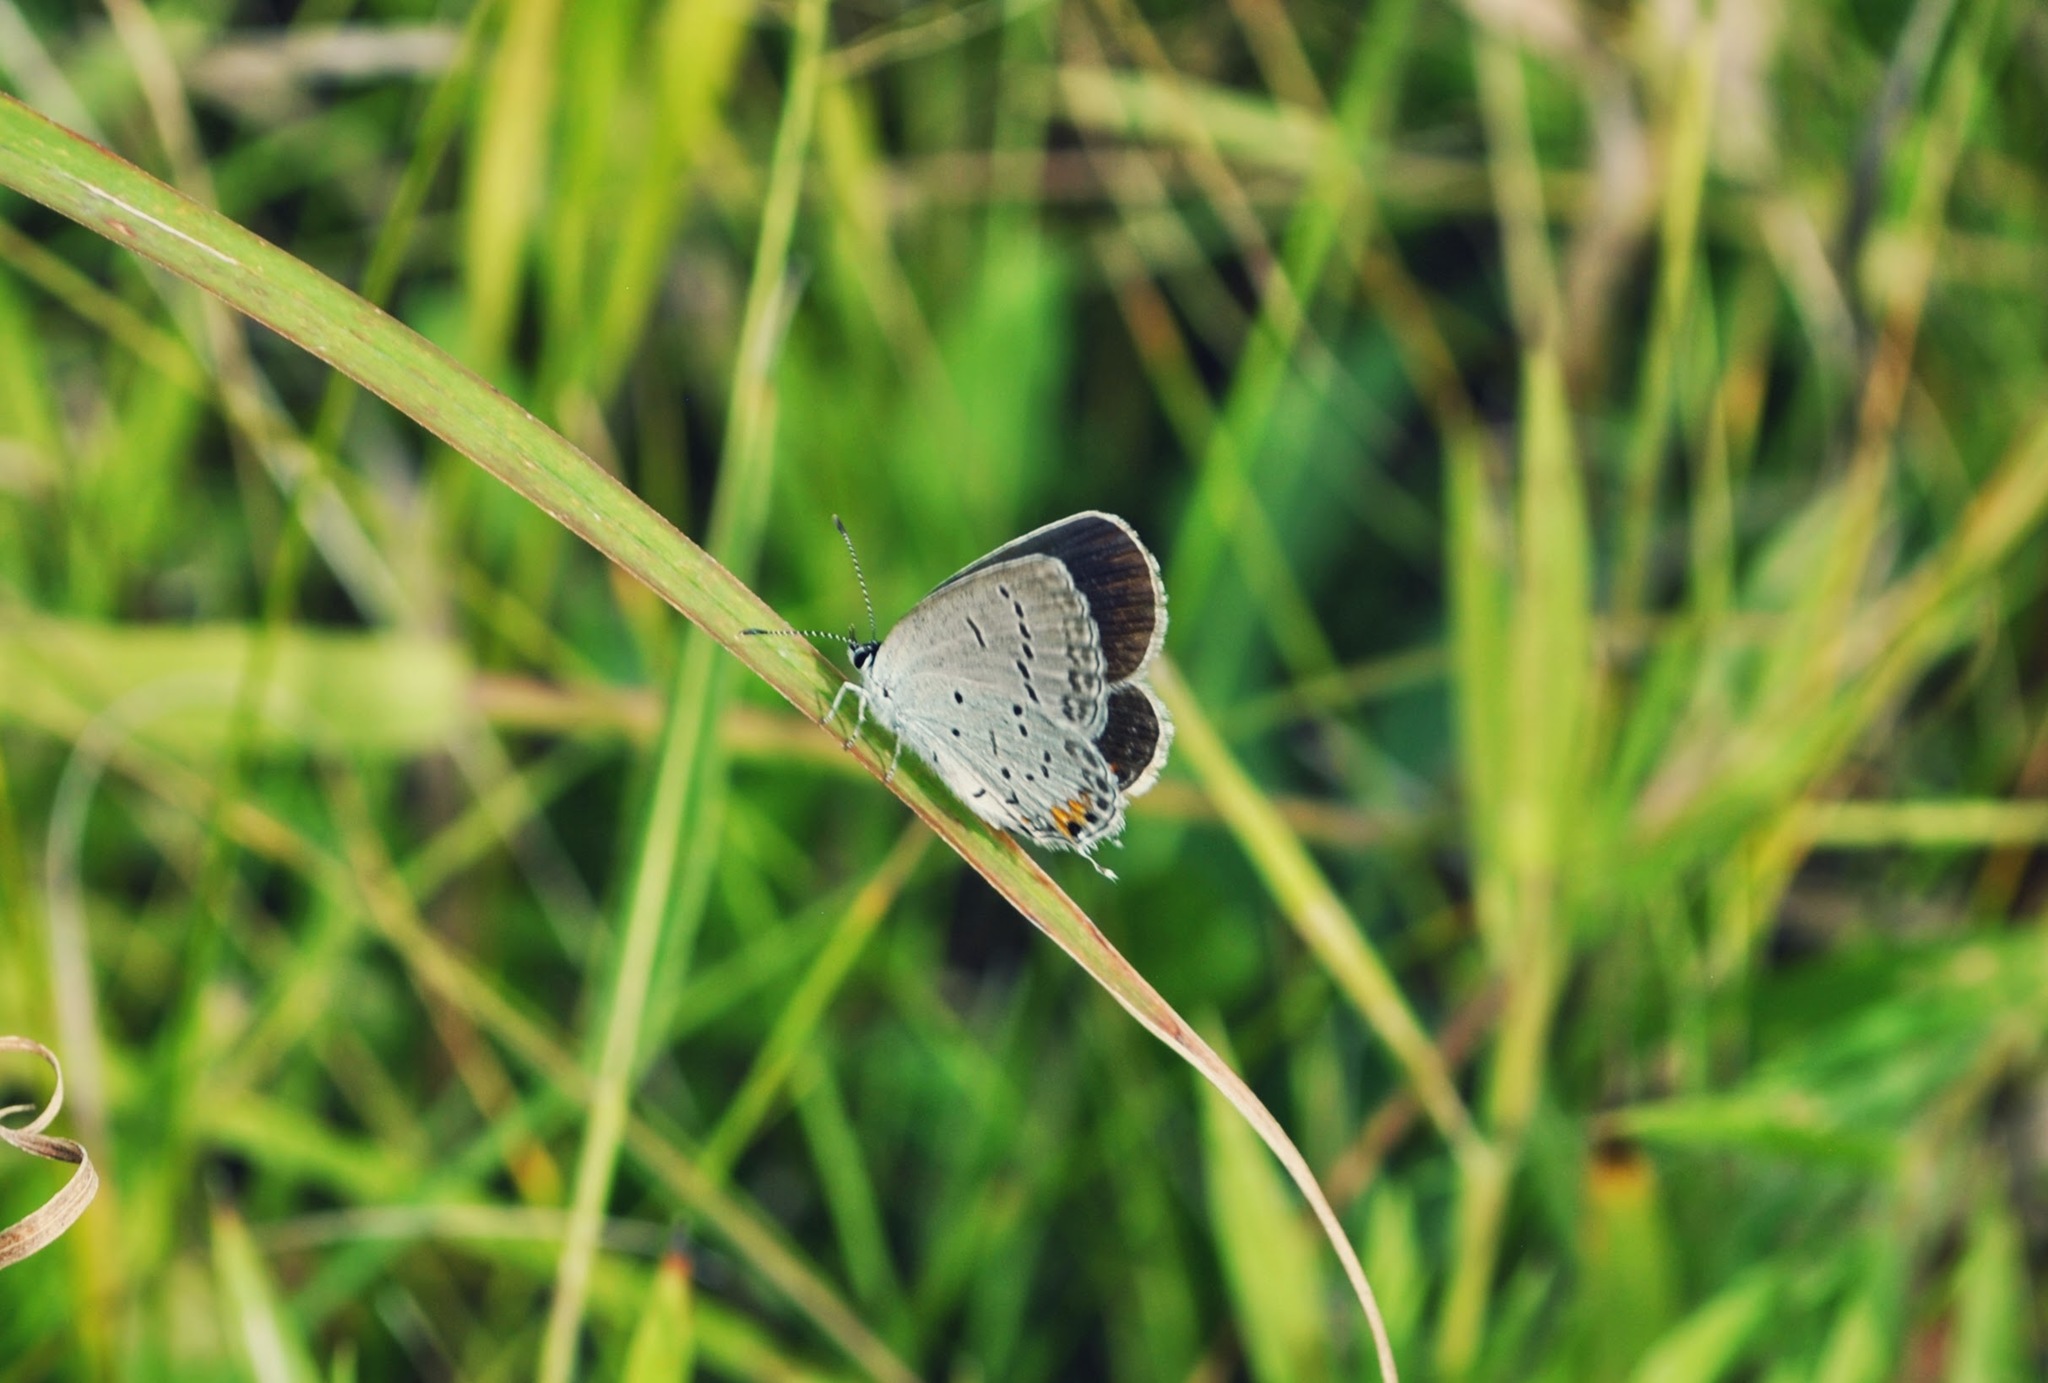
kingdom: Animalia
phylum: Arthropoda
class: Insecta
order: Lepidoptera
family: Lycaenidae
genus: Elkalyce
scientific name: Elkalyce comyntas
